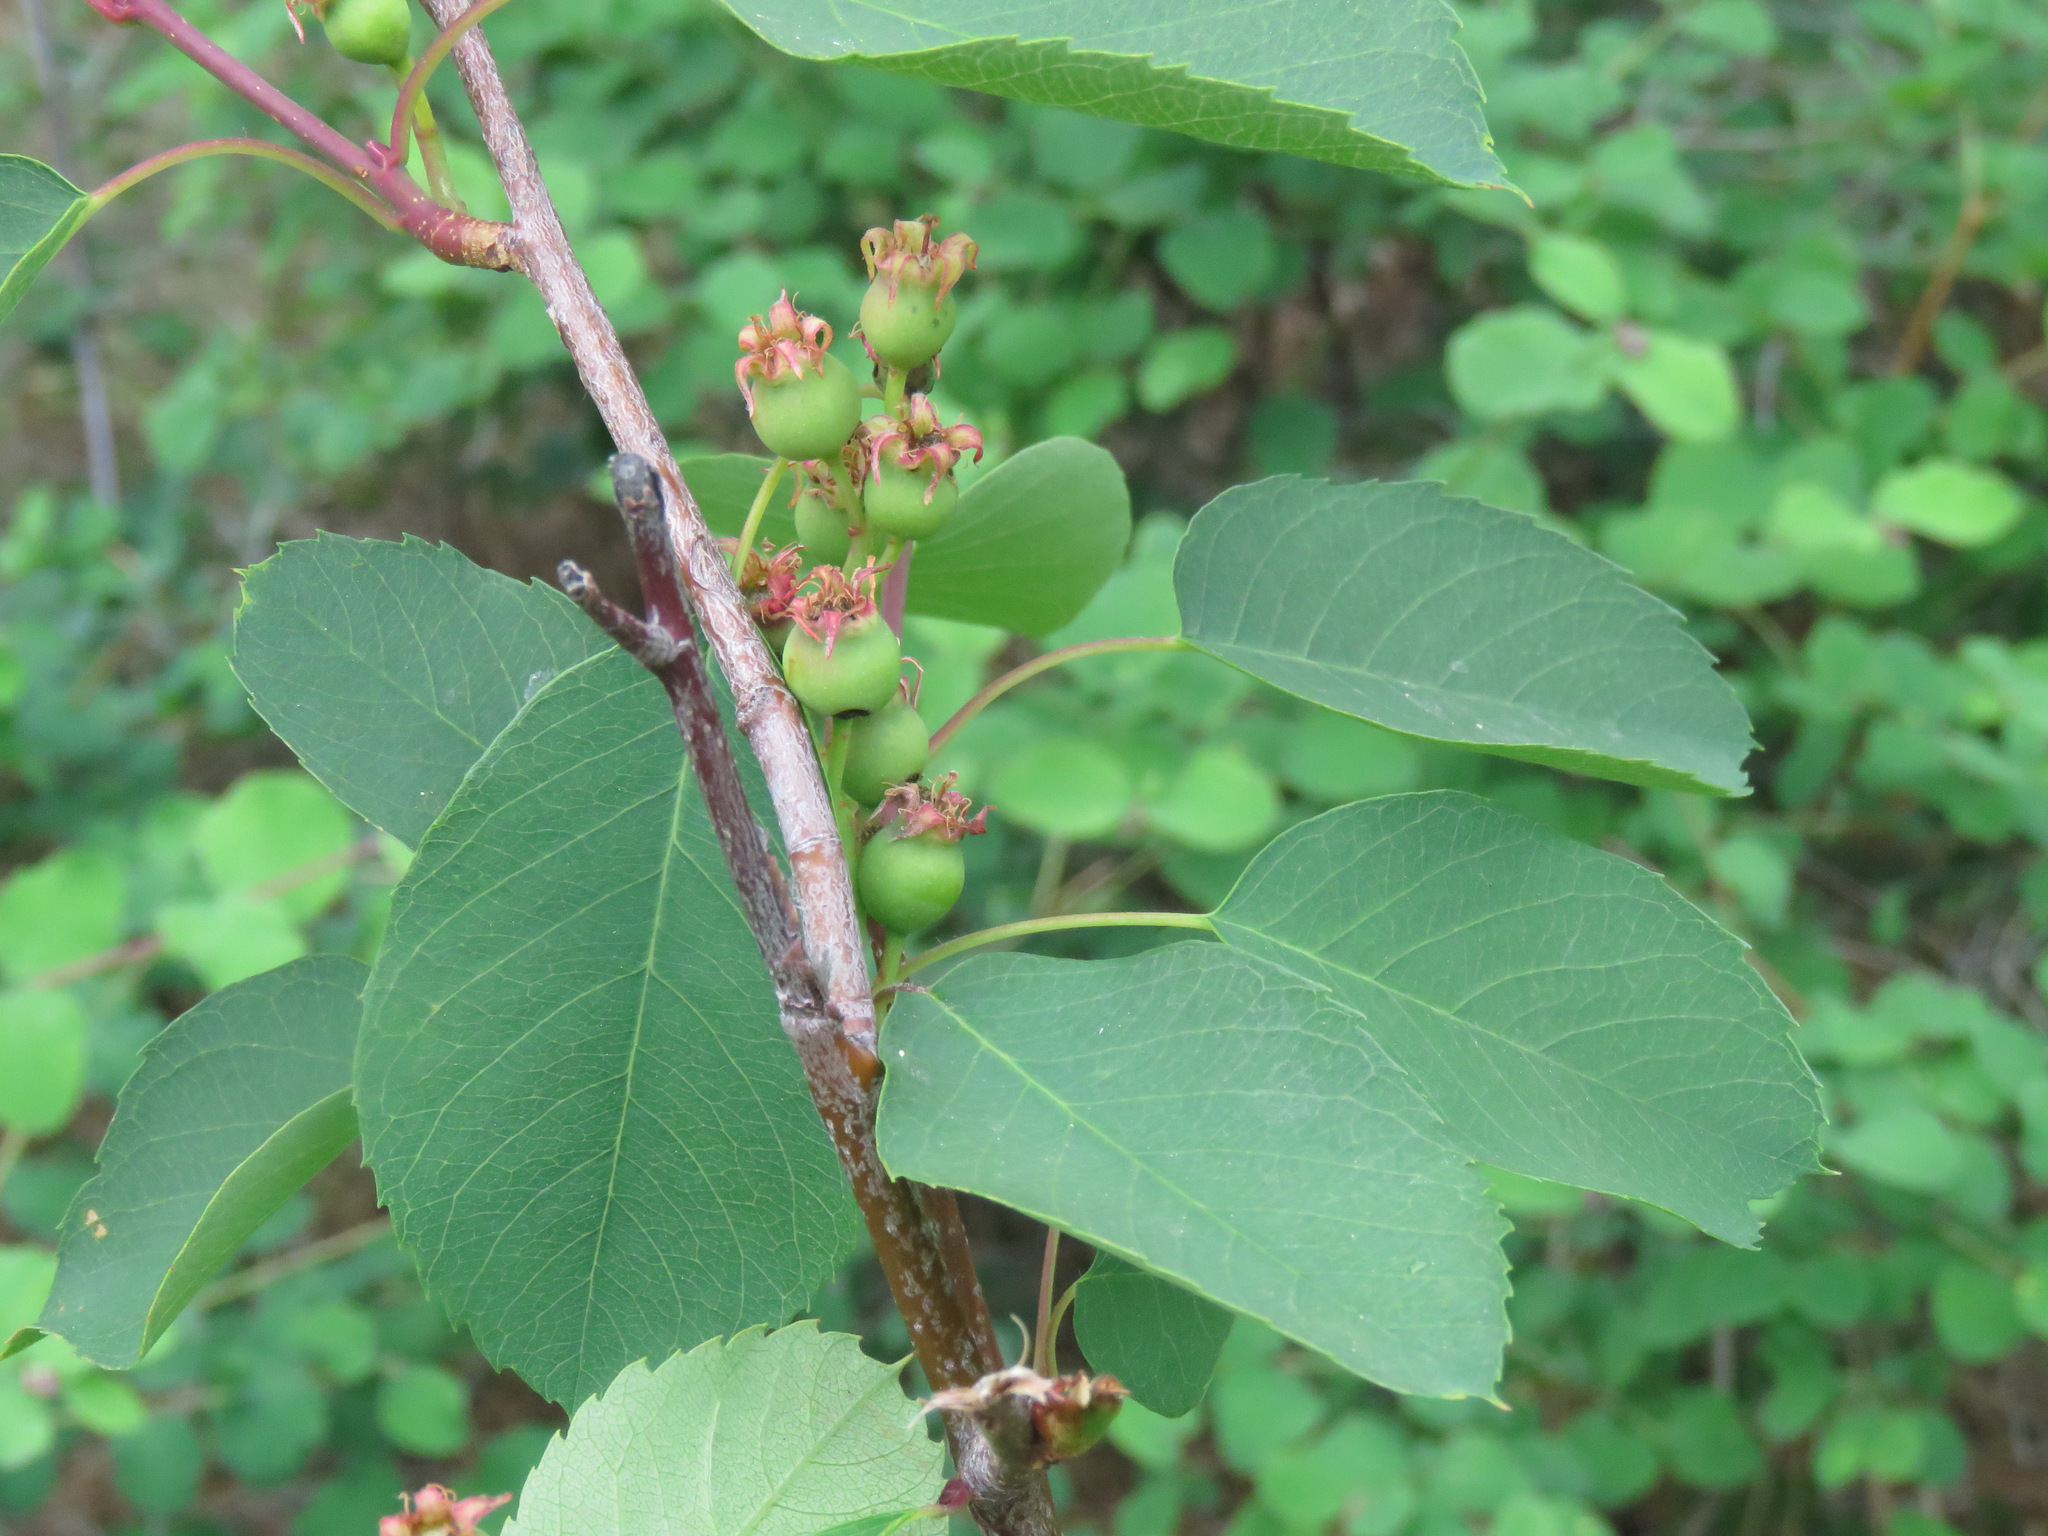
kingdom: Plantae
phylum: Tracheophyta
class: Magnoliopsida
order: Rosales
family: Rosaceae
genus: Amelanchier
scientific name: Amelanchier alnifolia
